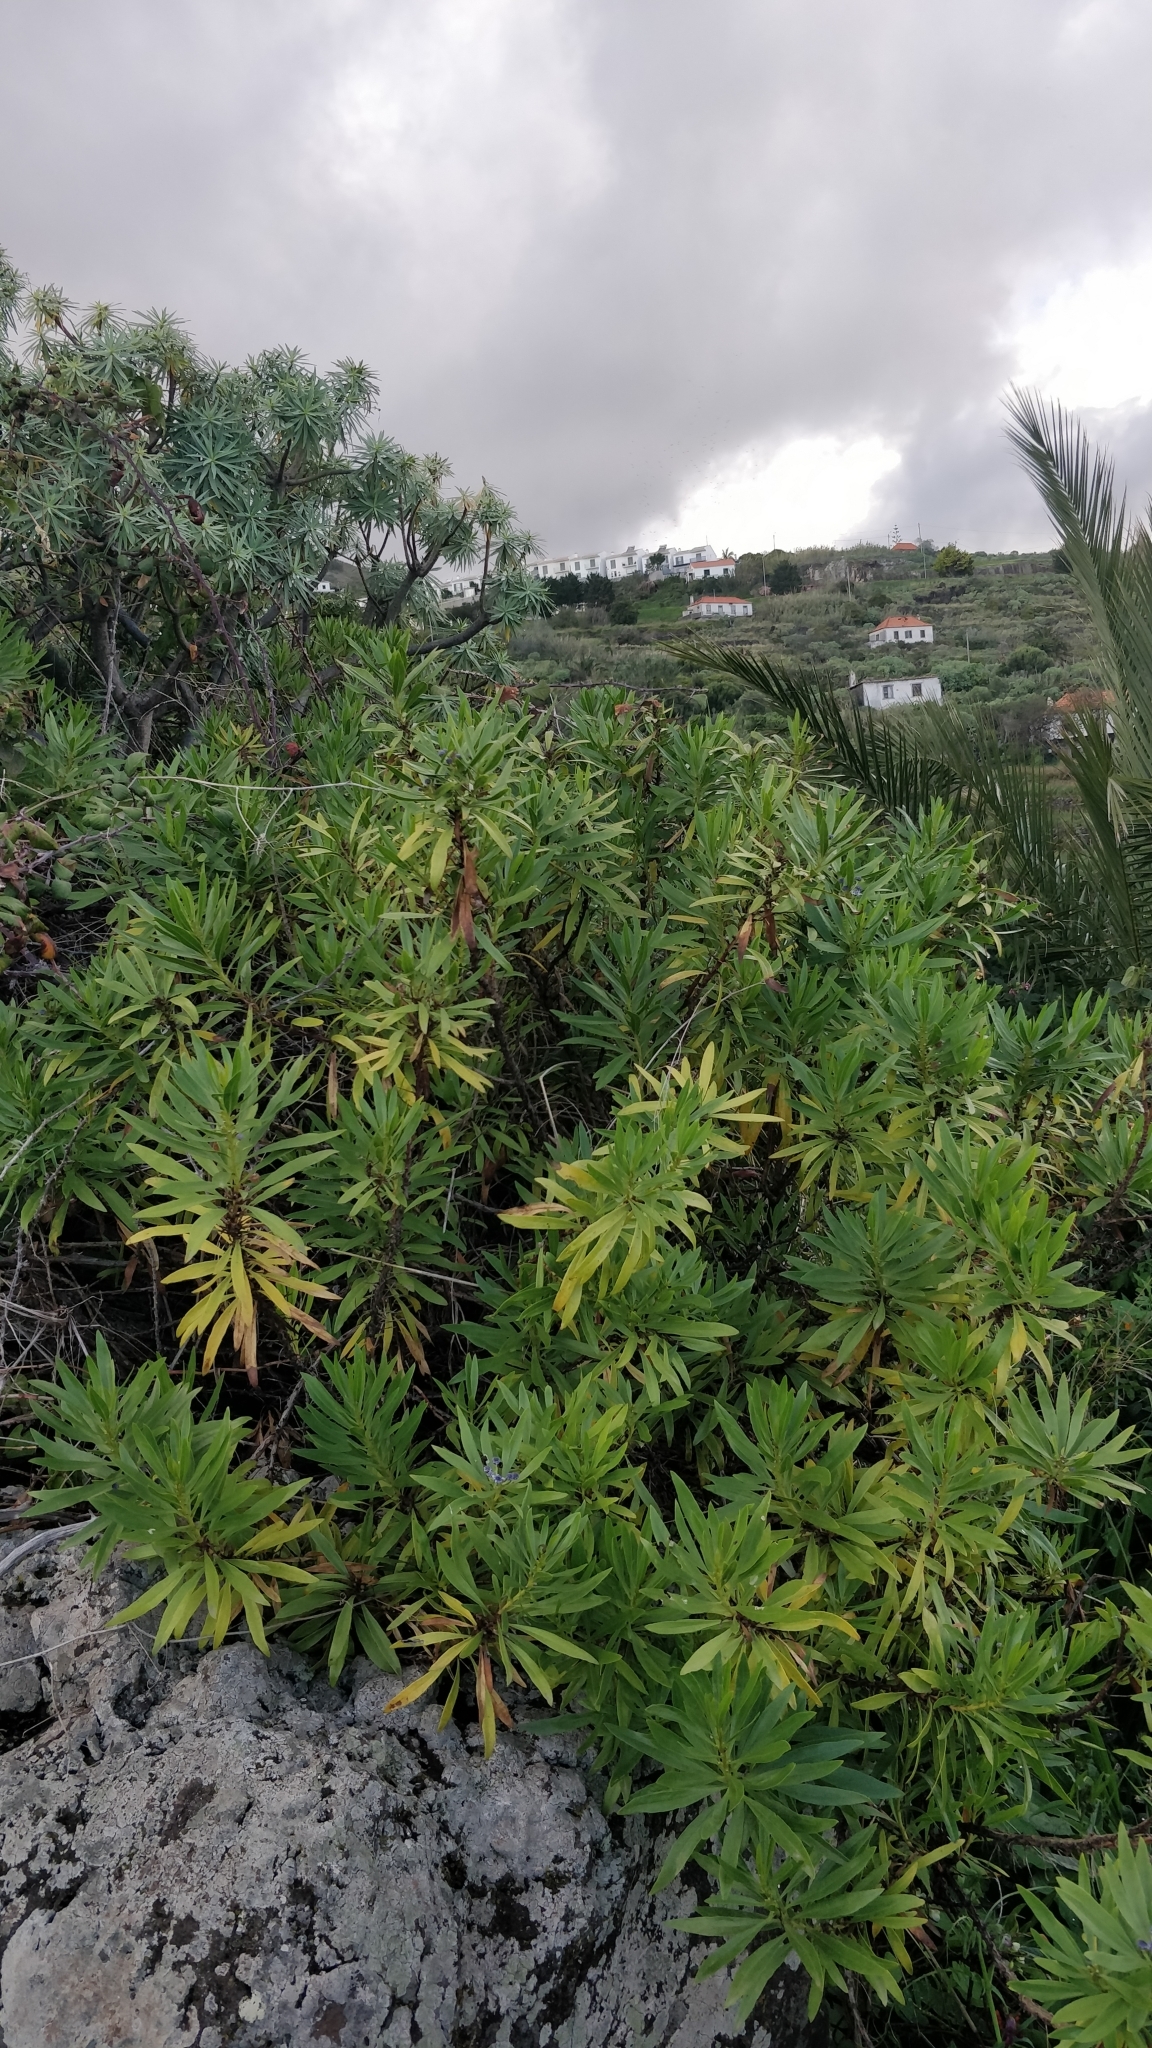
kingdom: Plantae
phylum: Tracheophyta
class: Magnoliopsida
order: Lamiales
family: Plantaginaceae
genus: Globularia
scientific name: Globularia salicina
